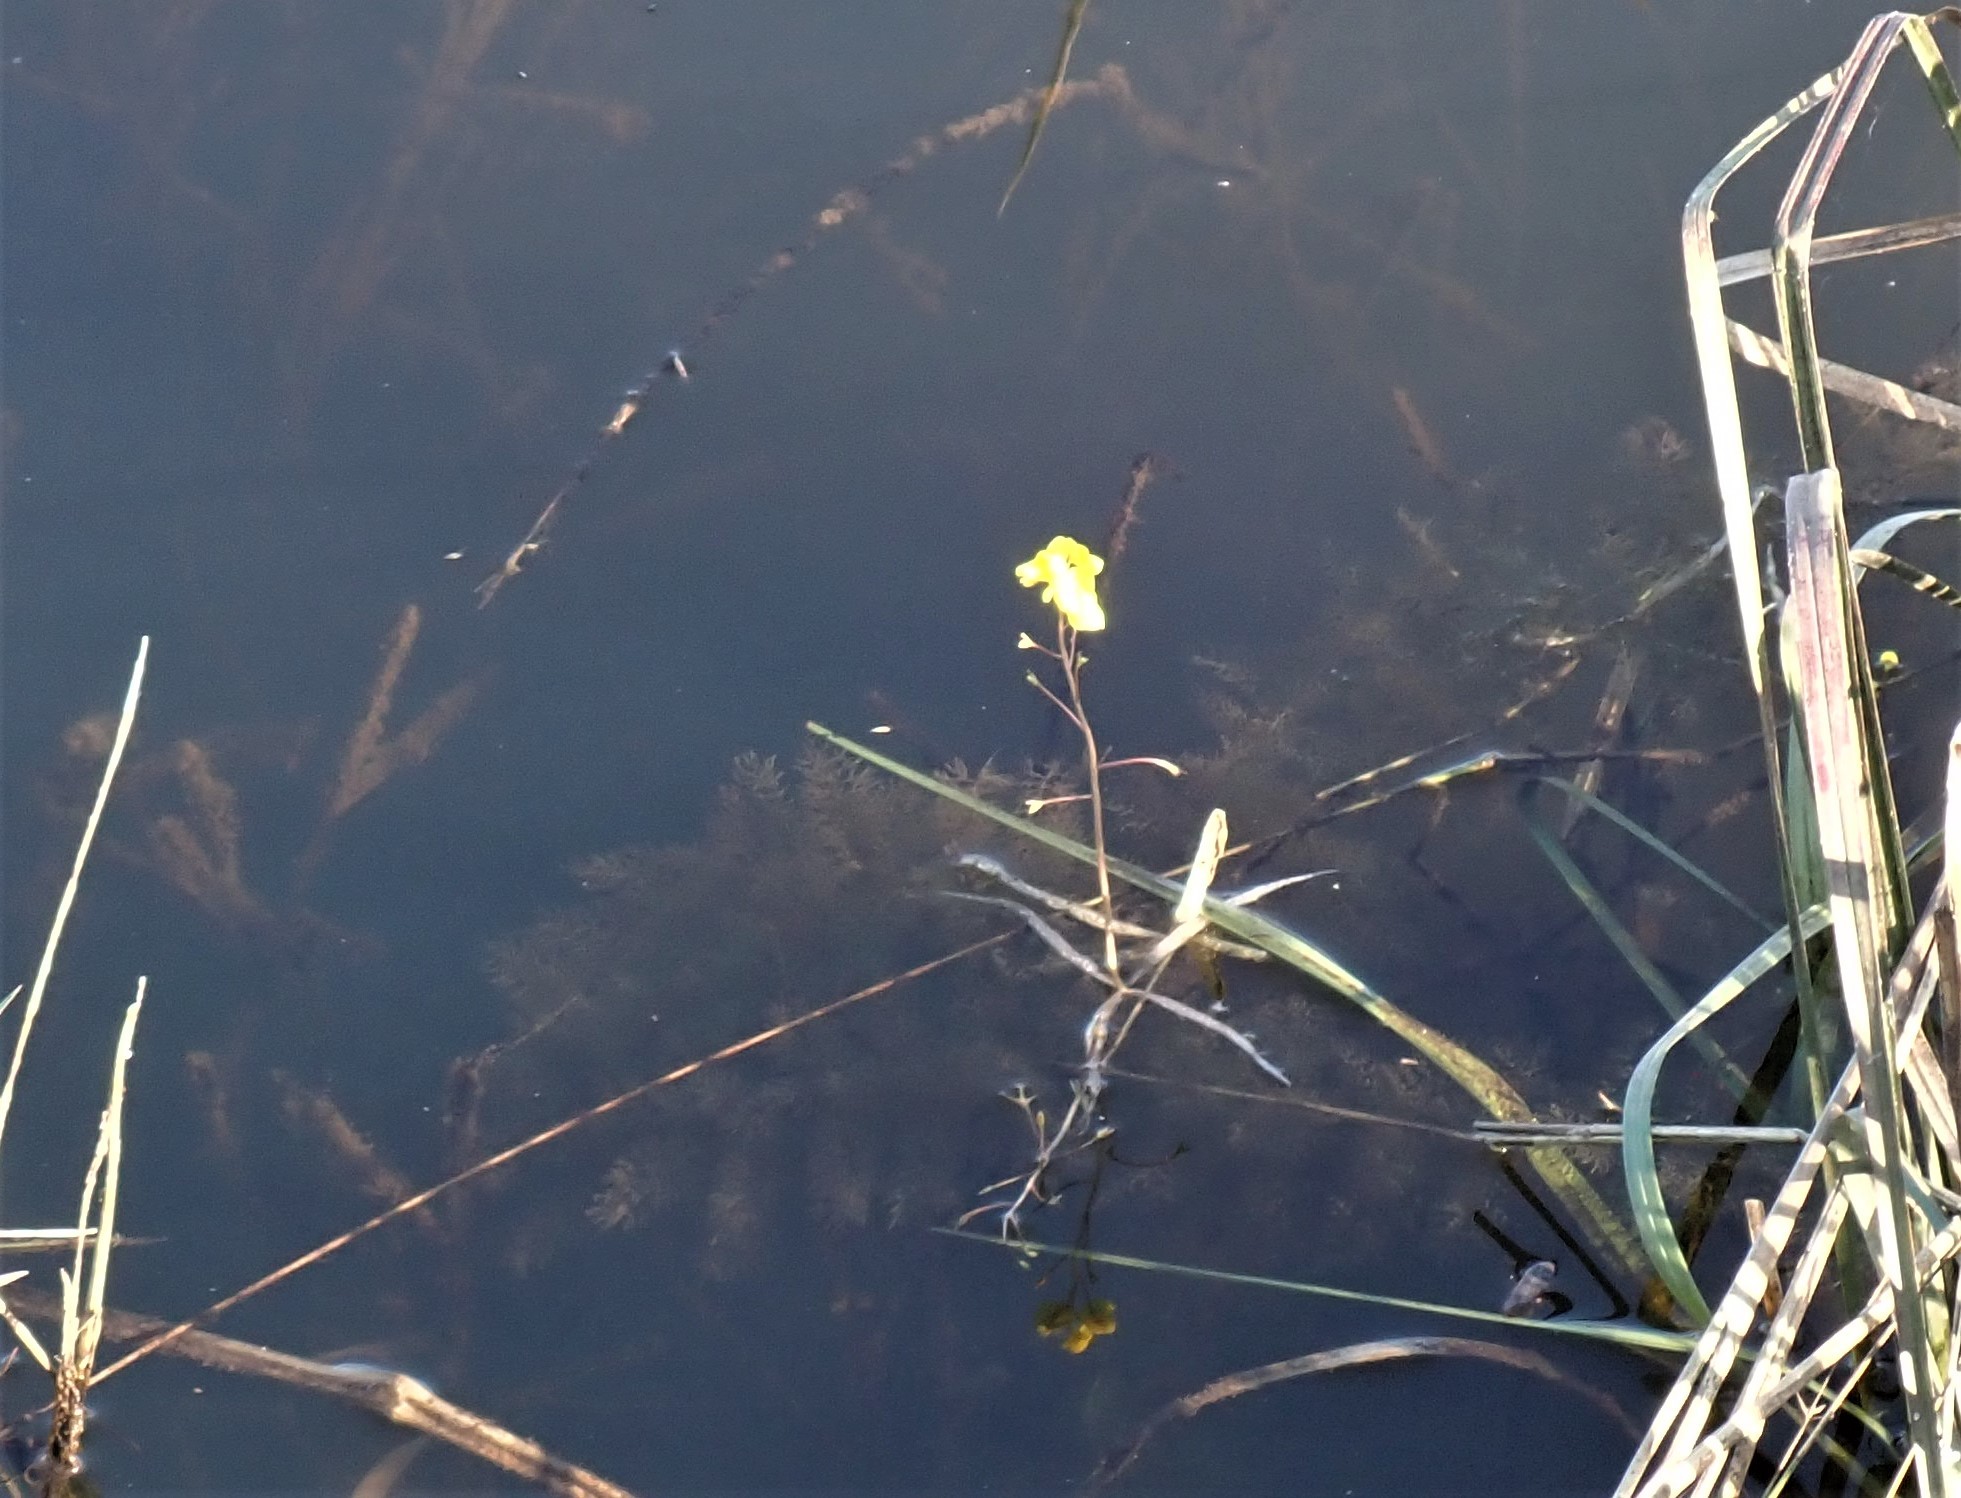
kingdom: Plantae
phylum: Tracheophyta
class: Magnoliopsida
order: Lamiales
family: Lentibulariaceae
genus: Utricularia
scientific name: Utricularia aurea
